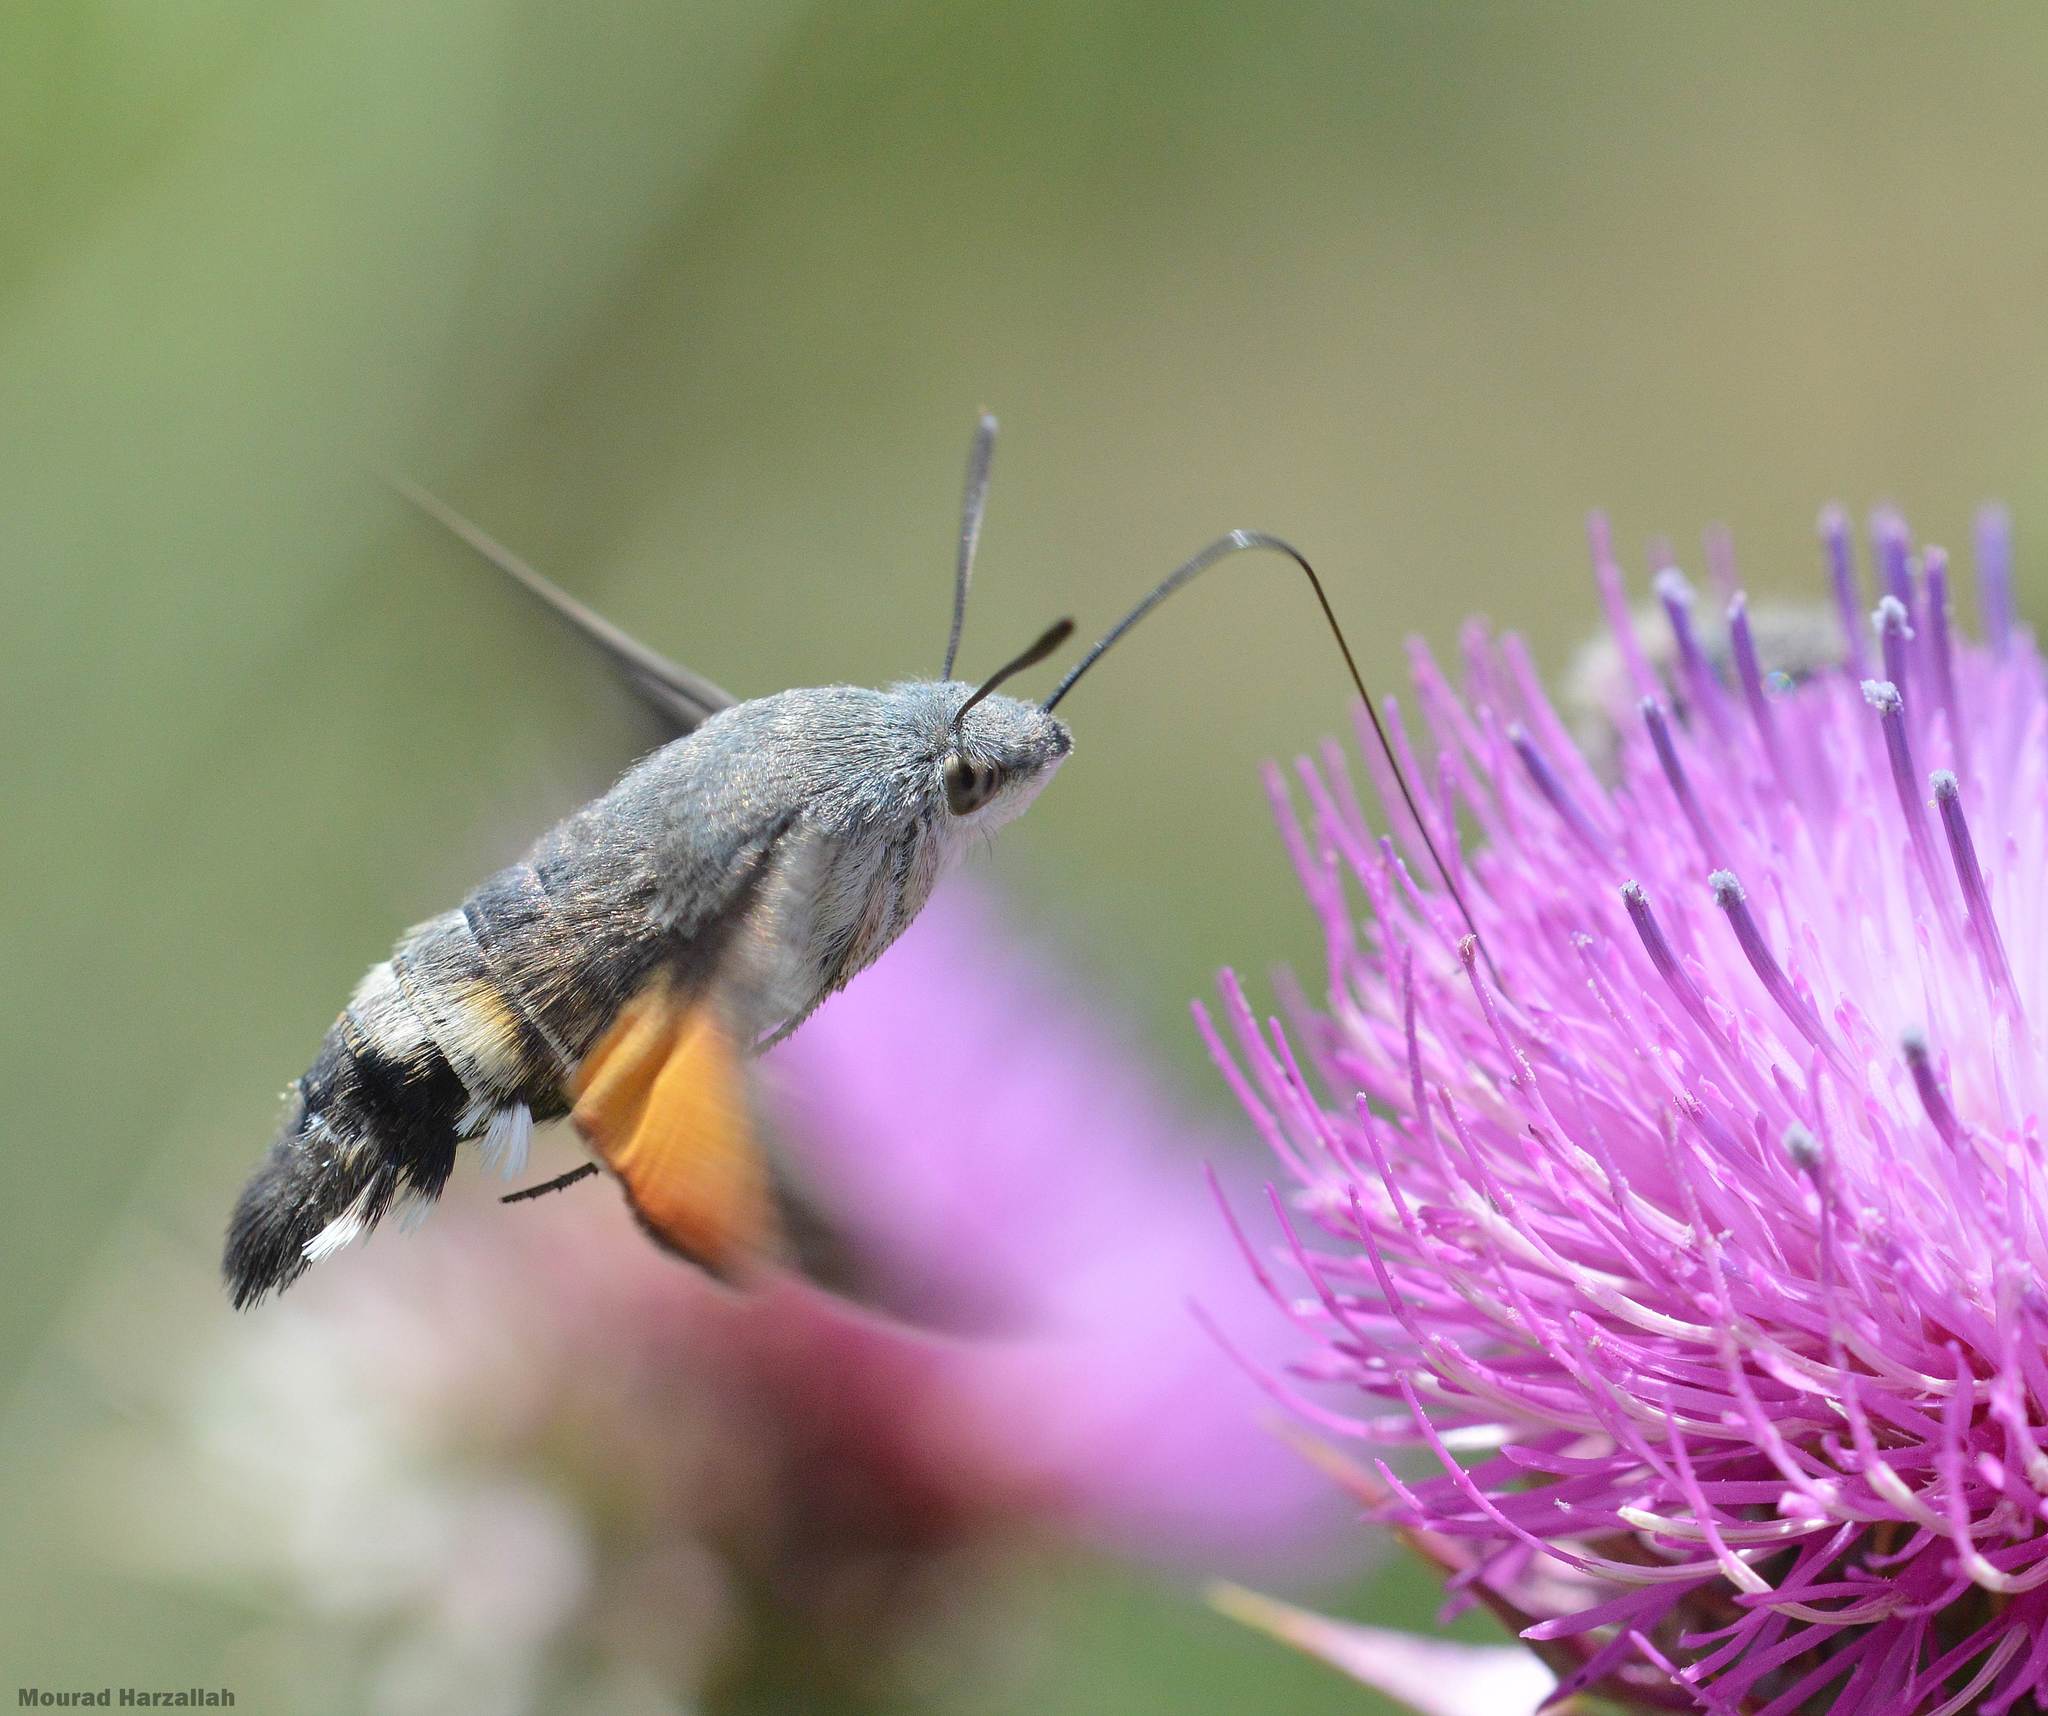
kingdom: Animalia
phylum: Arthropoda
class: Insecta
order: Lepidoptera
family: Sphingidae
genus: Macroglossum
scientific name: Macroglossum stellatarum
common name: Humming-bird hawk-moth
